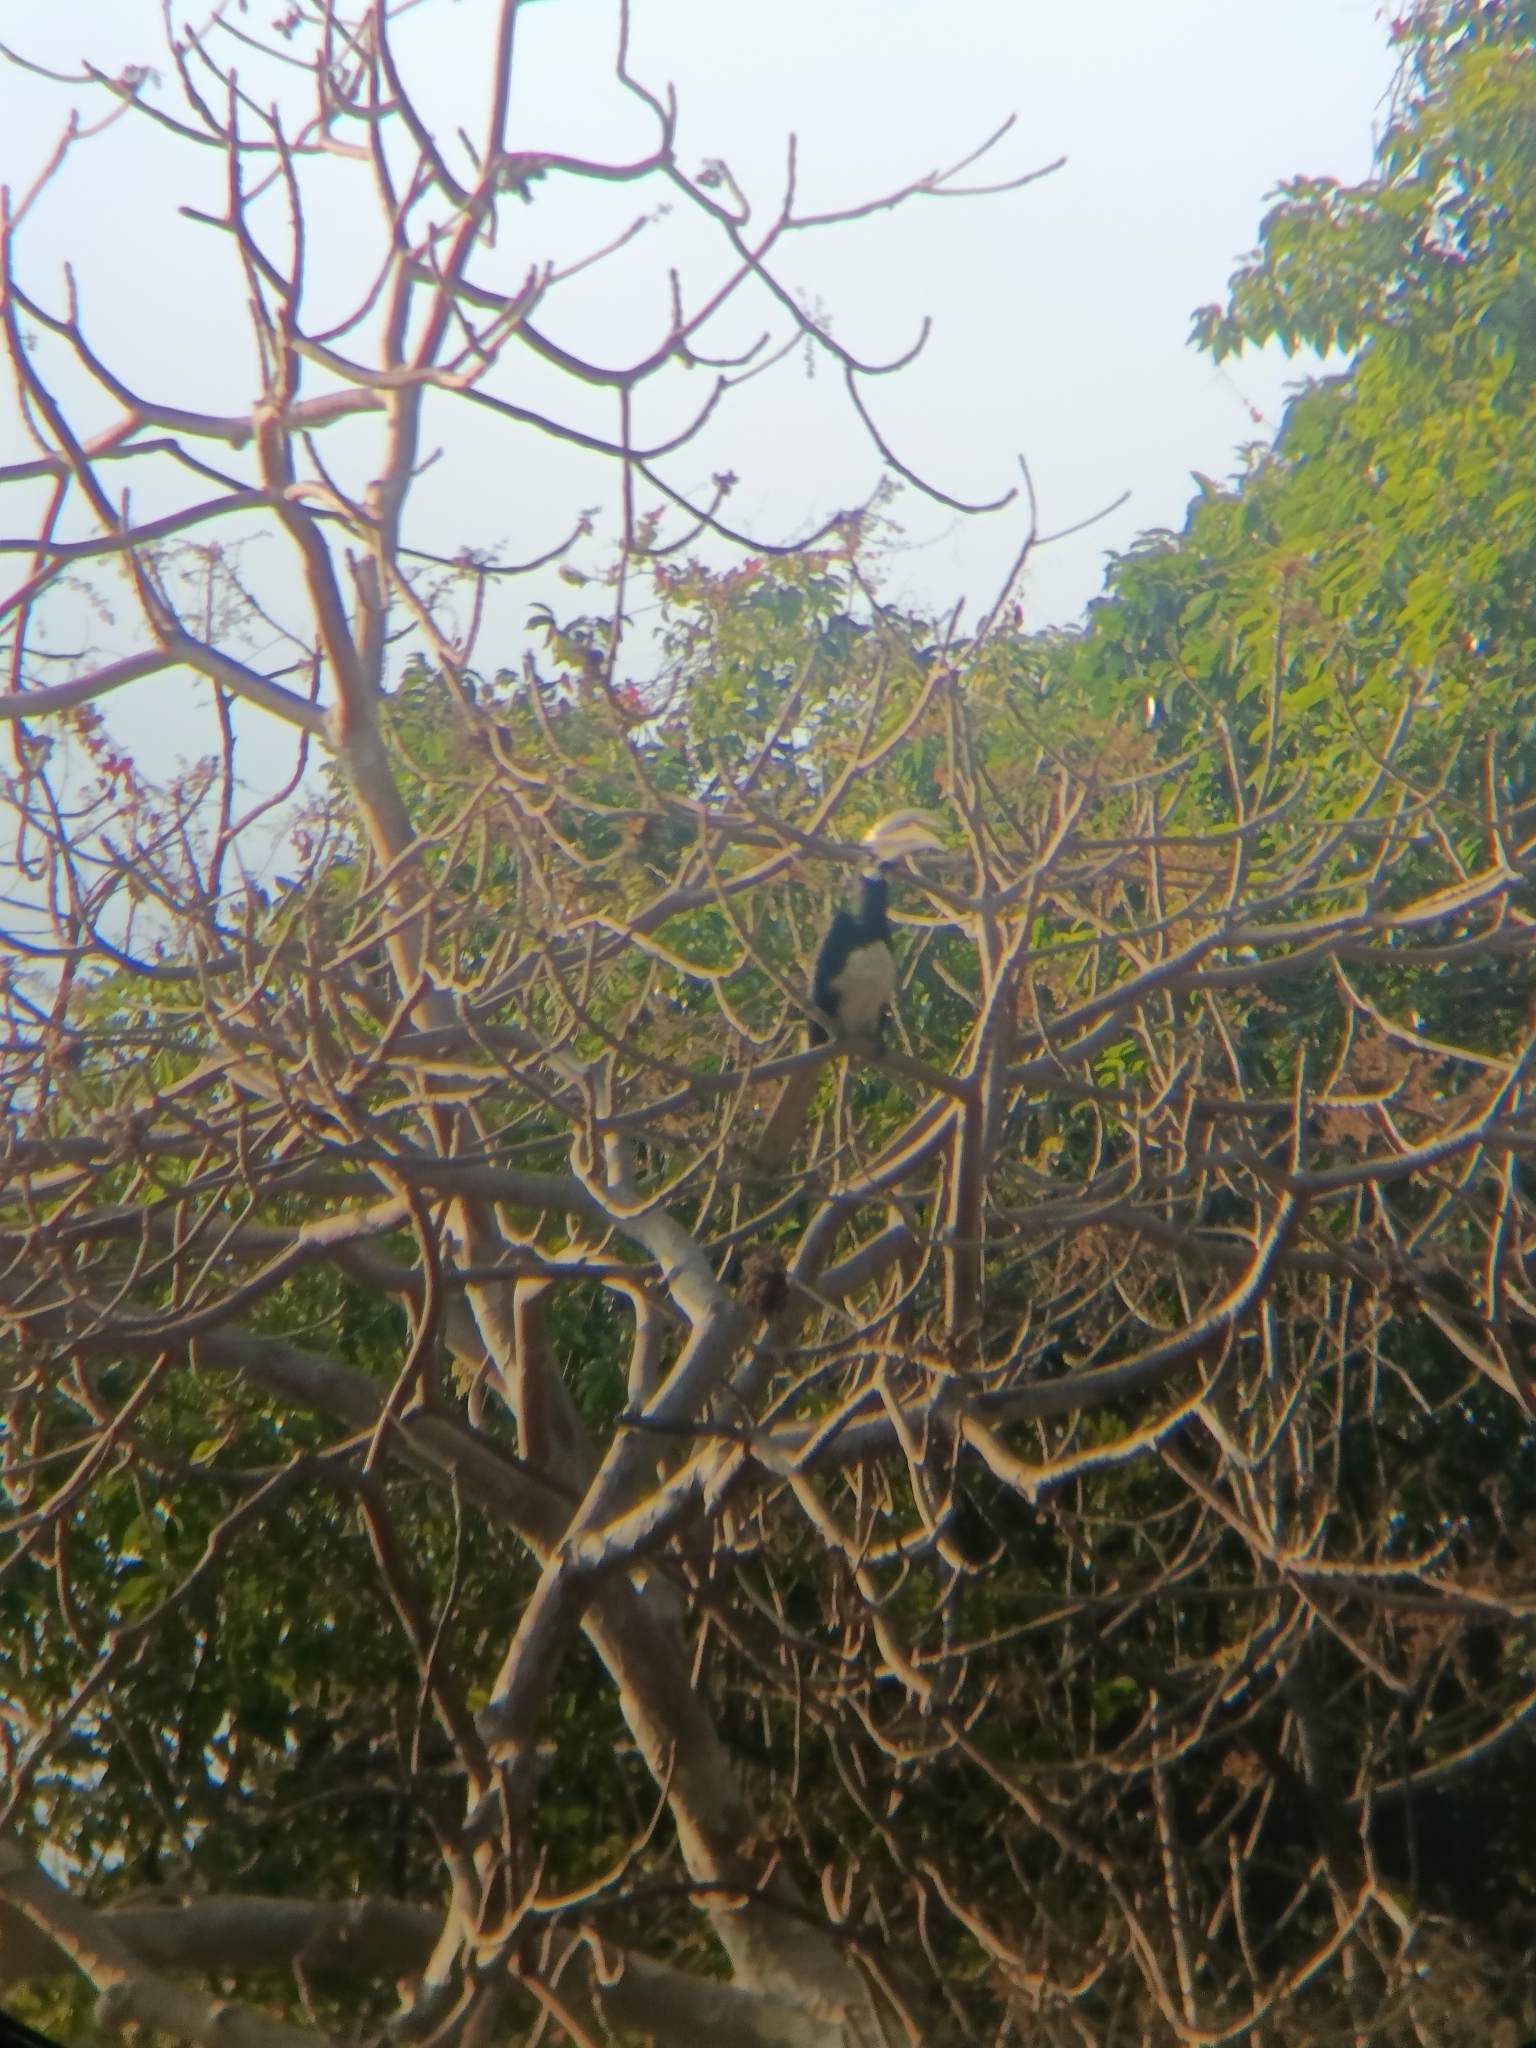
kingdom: Animalia
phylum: Chordata
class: Aves
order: Bucerotiformes
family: Bucerotidae
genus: Anthracoceros
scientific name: Anthracoceros coronatus
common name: Malabar pied hornbill
